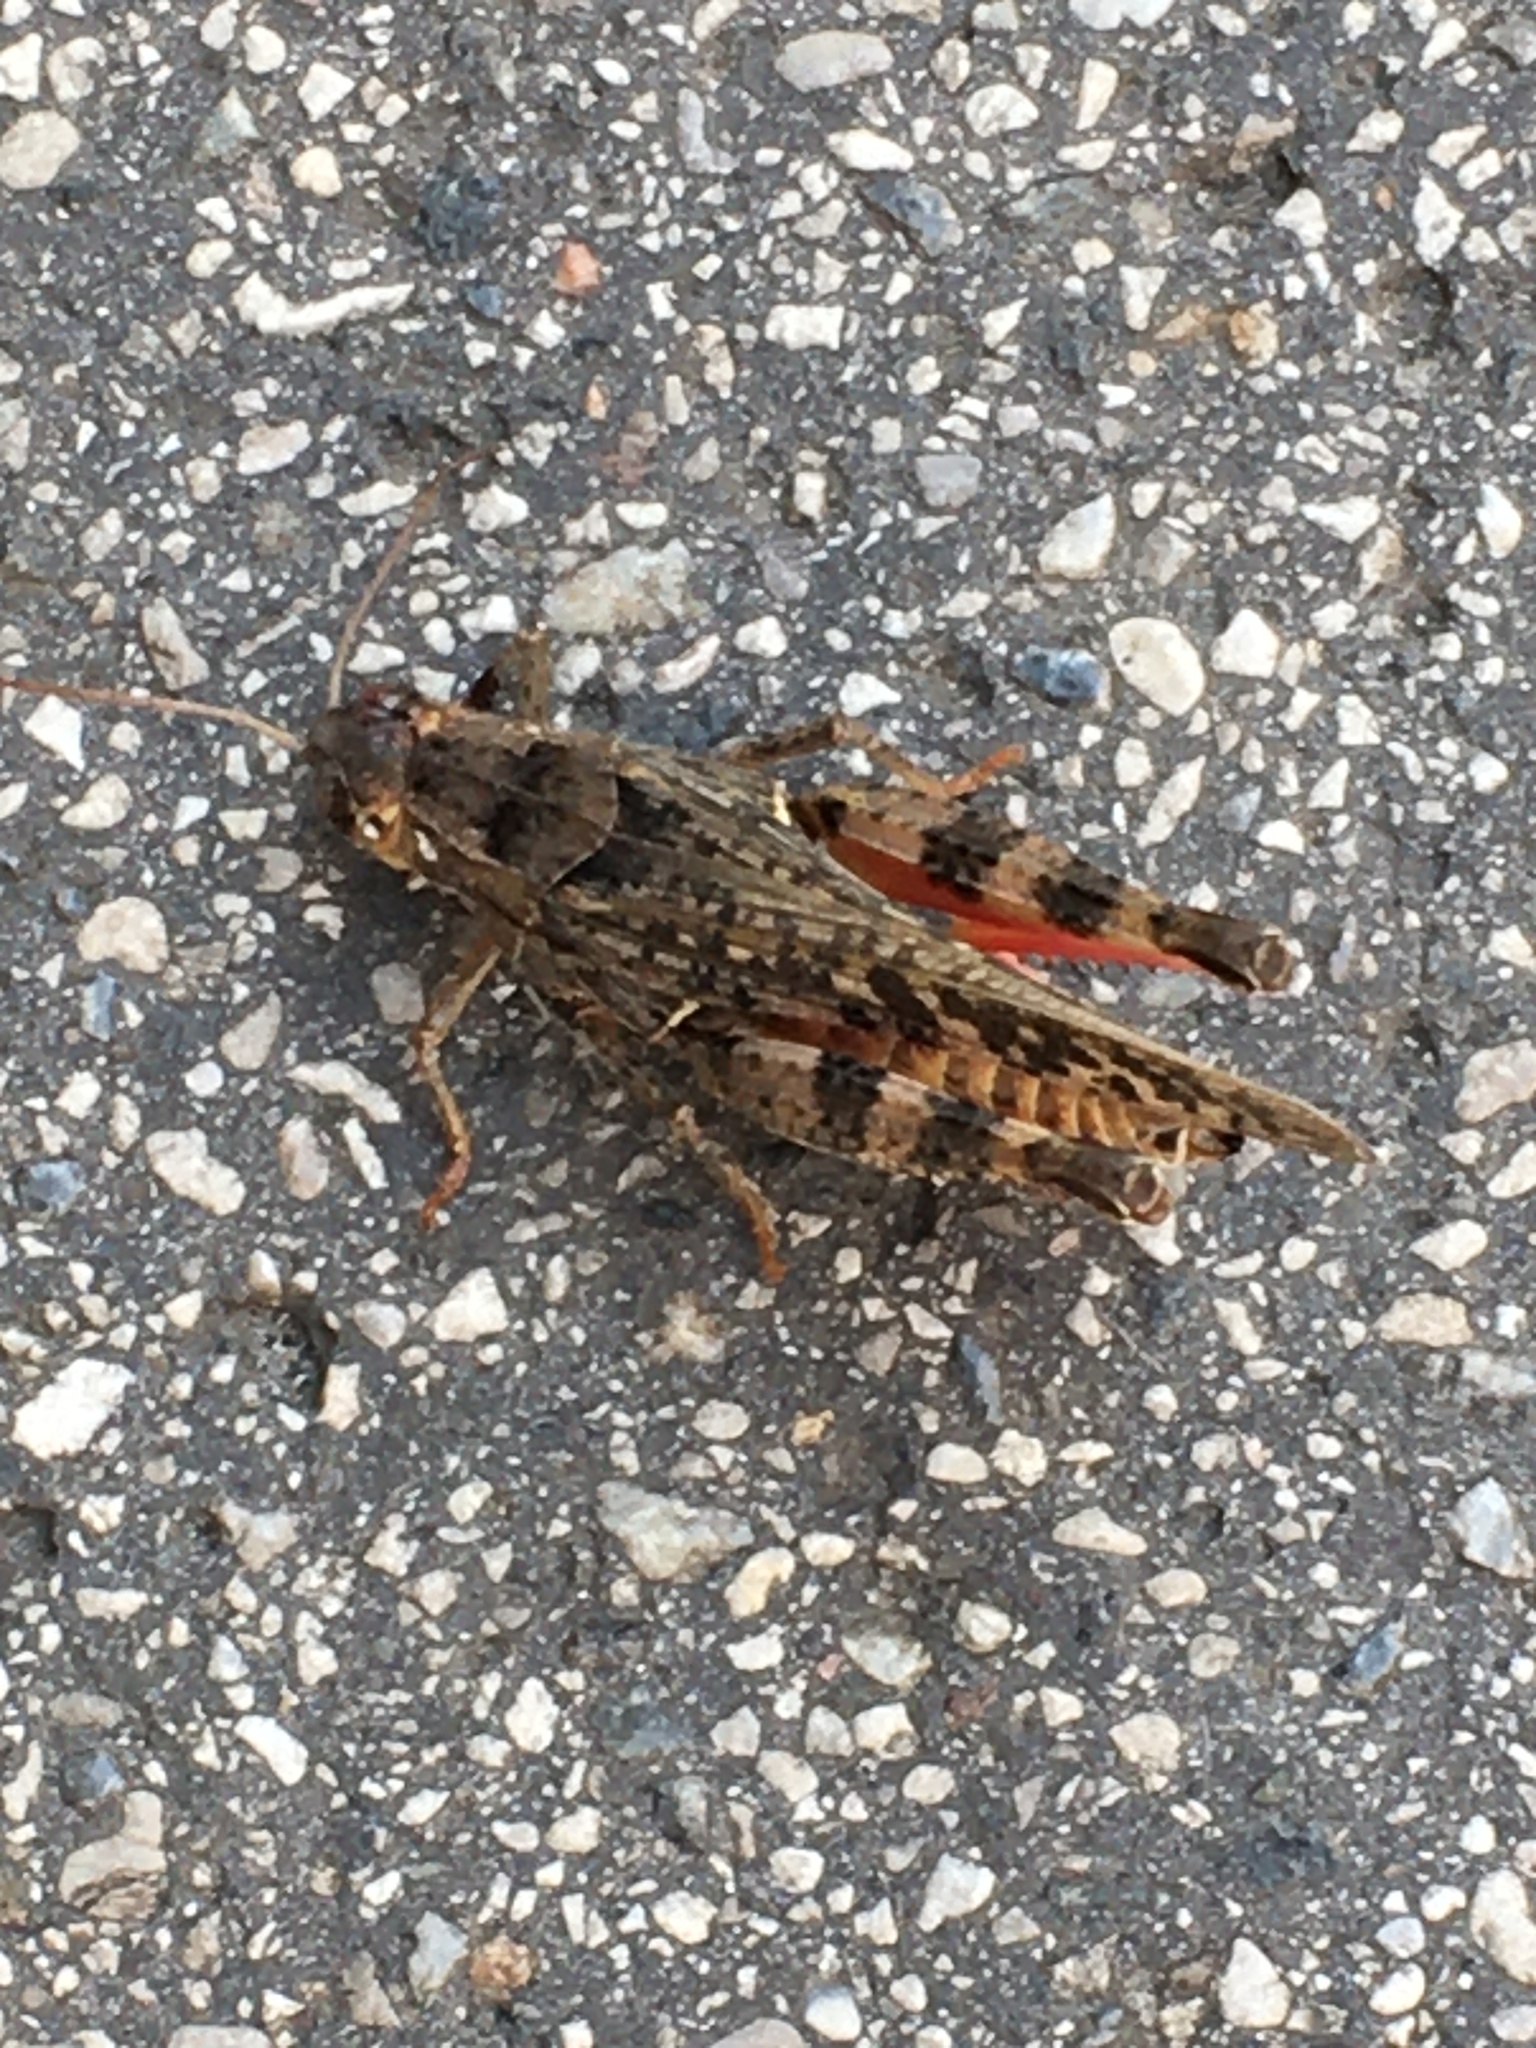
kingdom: Animalia
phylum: Arthropoda
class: Insecta
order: Orthoptera
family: Acrididae
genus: Calliptamus
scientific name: Calliptamus italicus
